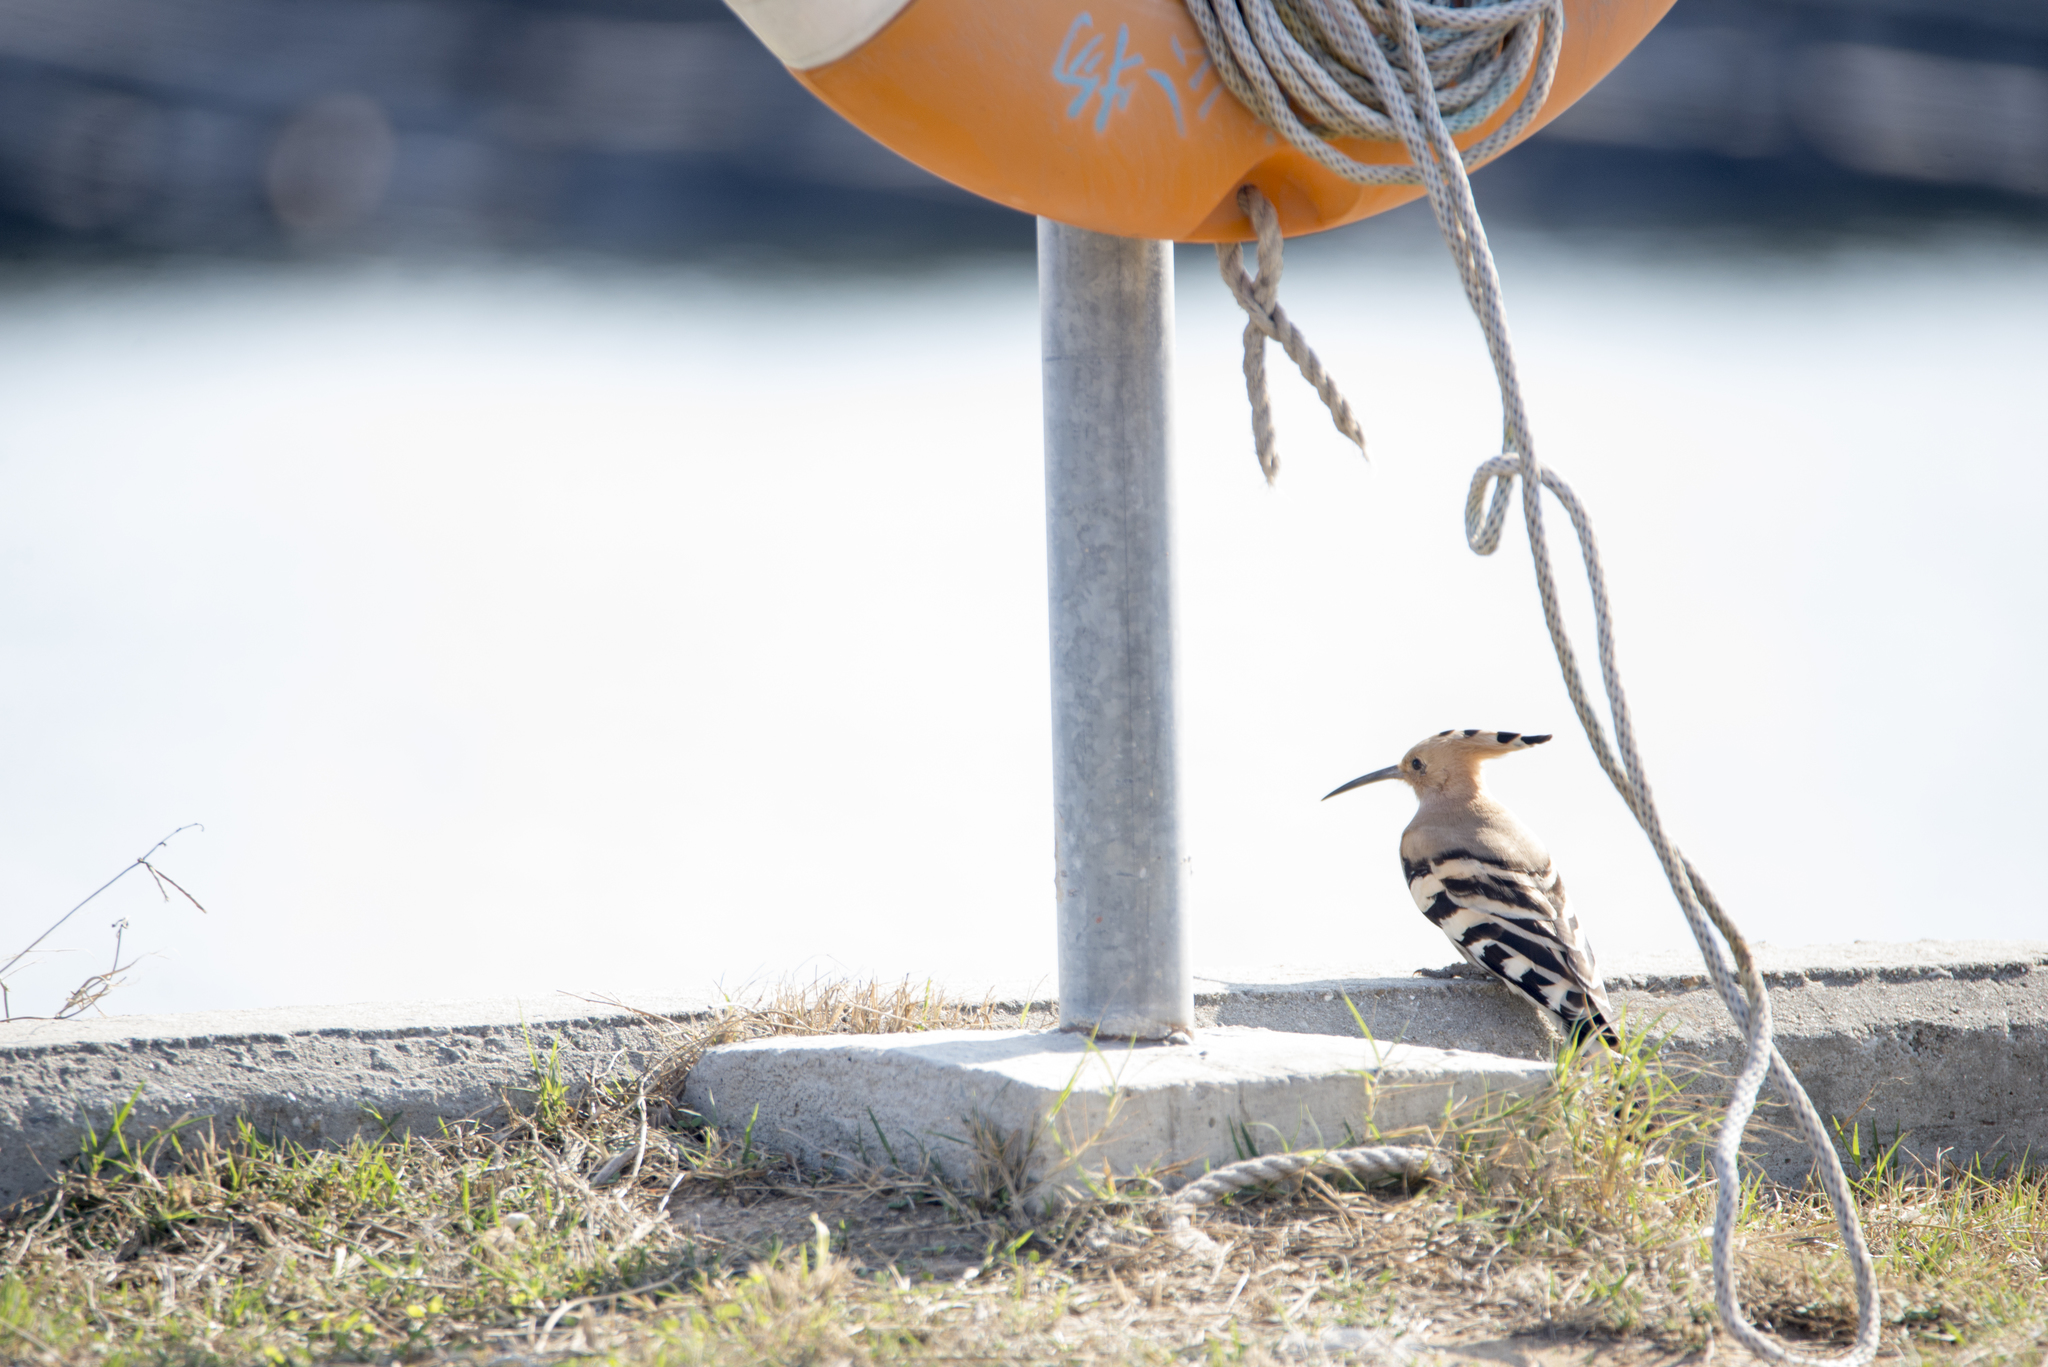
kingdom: Animalia
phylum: Chordata
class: Aves
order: Bucerotiformes
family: Upupidae
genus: Upupa
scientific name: Upupa epops
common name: Eurasian hoopoe
